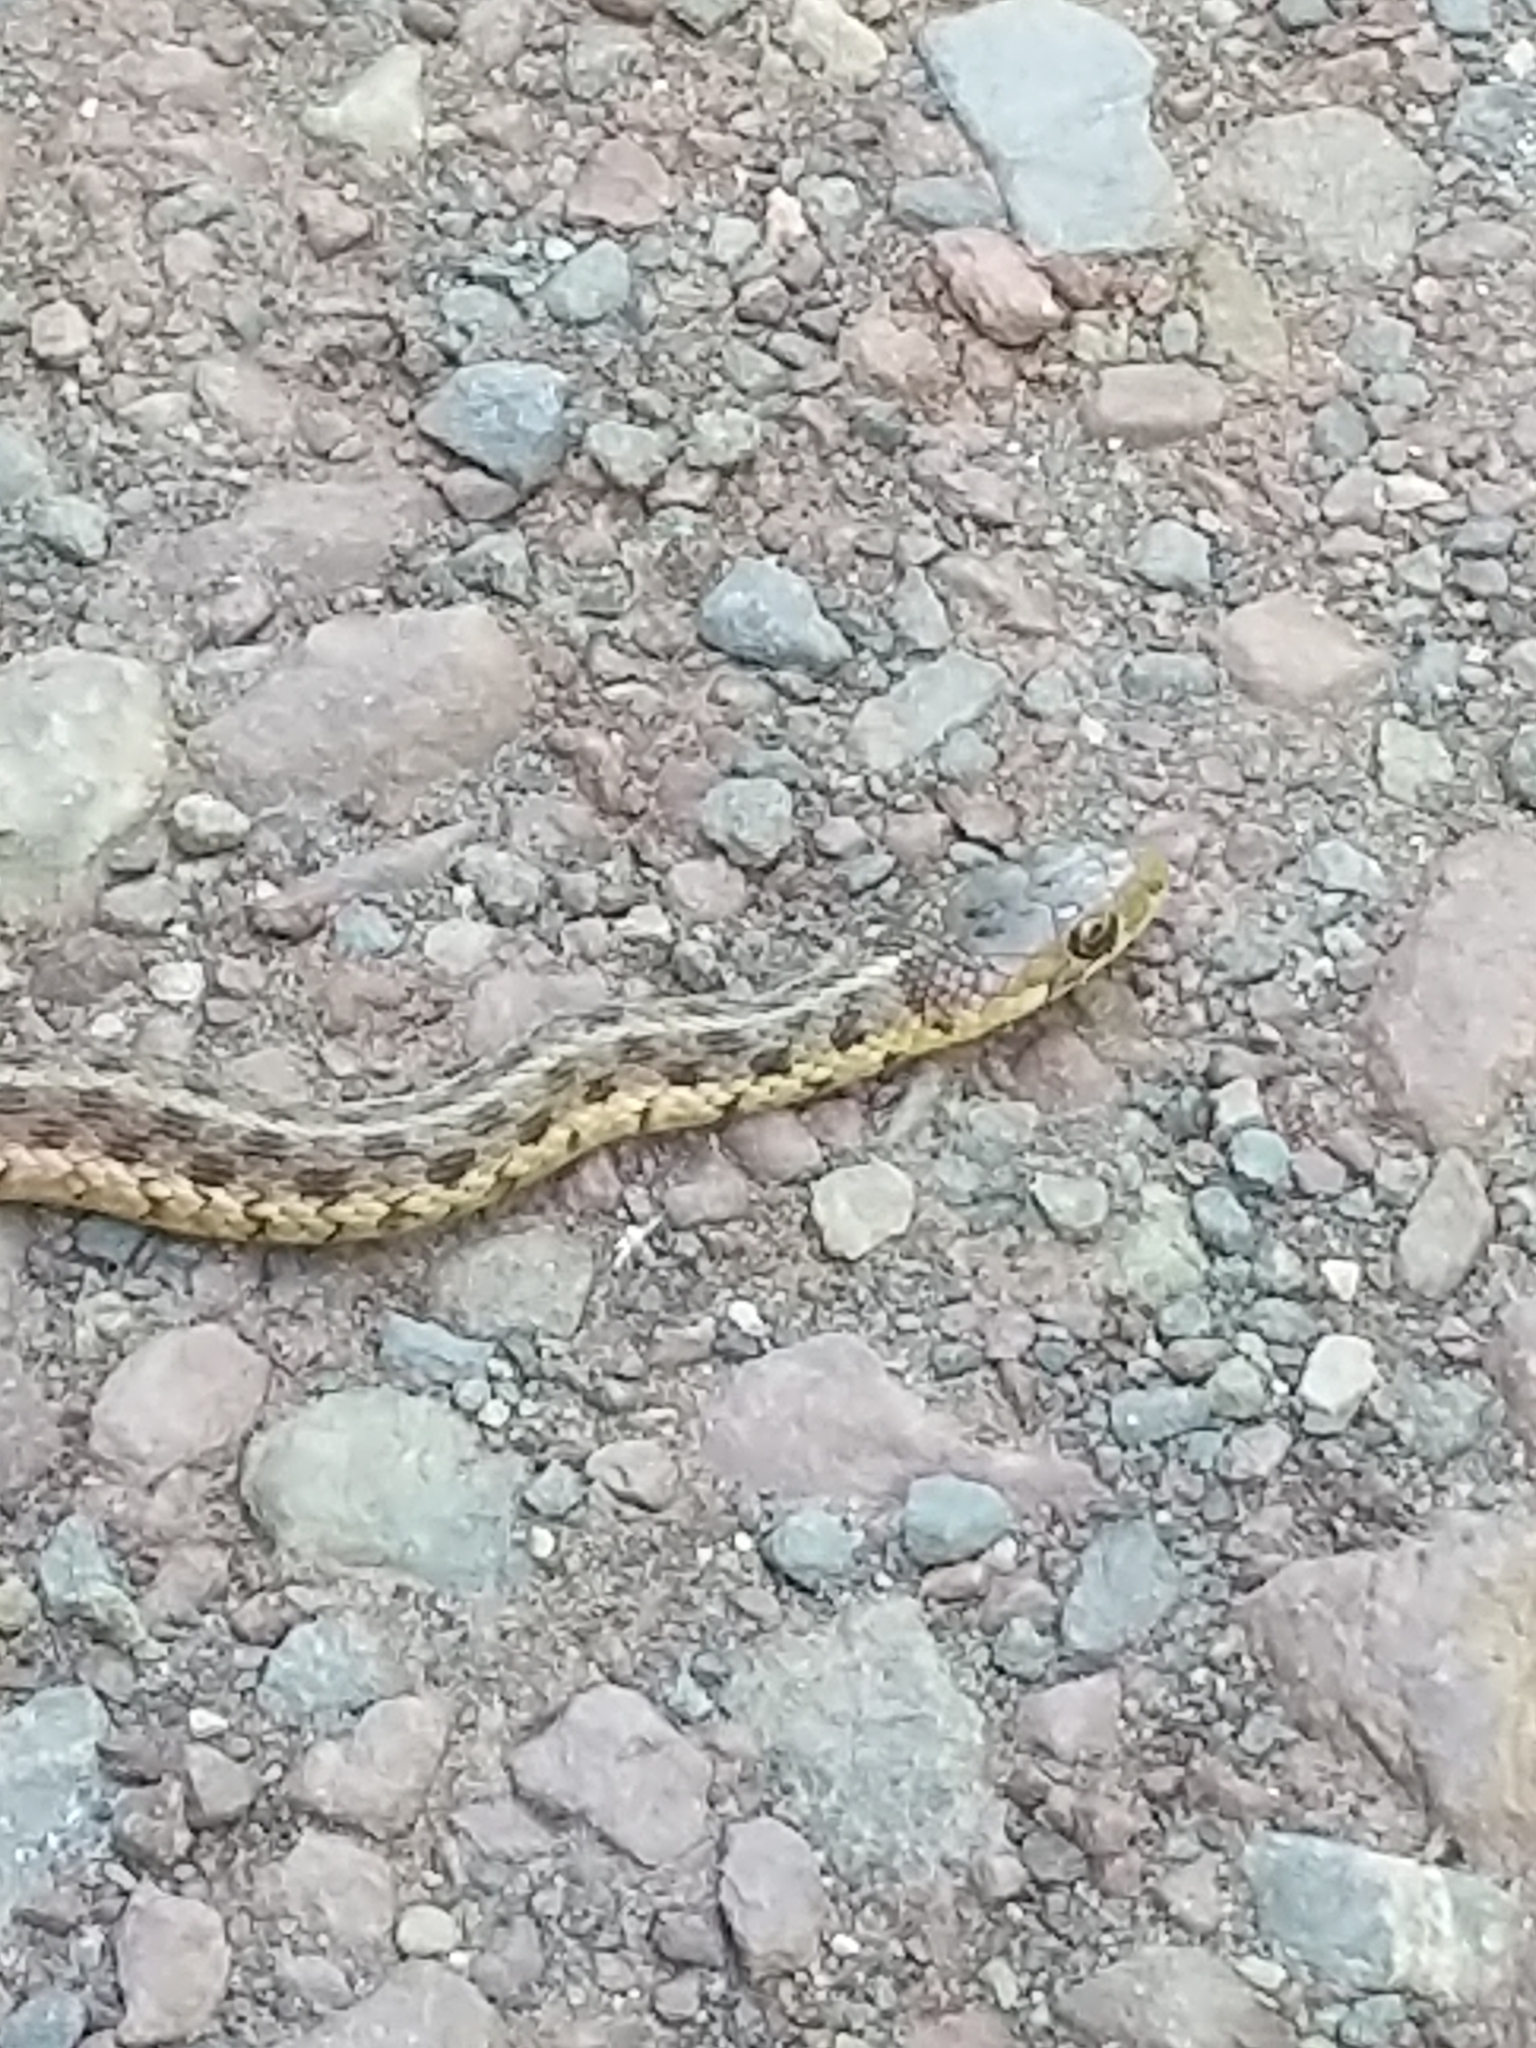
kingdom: Animalia
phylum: Chordata
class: Squamata
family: Colubridae
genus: Thamnophis
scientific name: Thamnophis sirtalis
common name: Common garter snake
